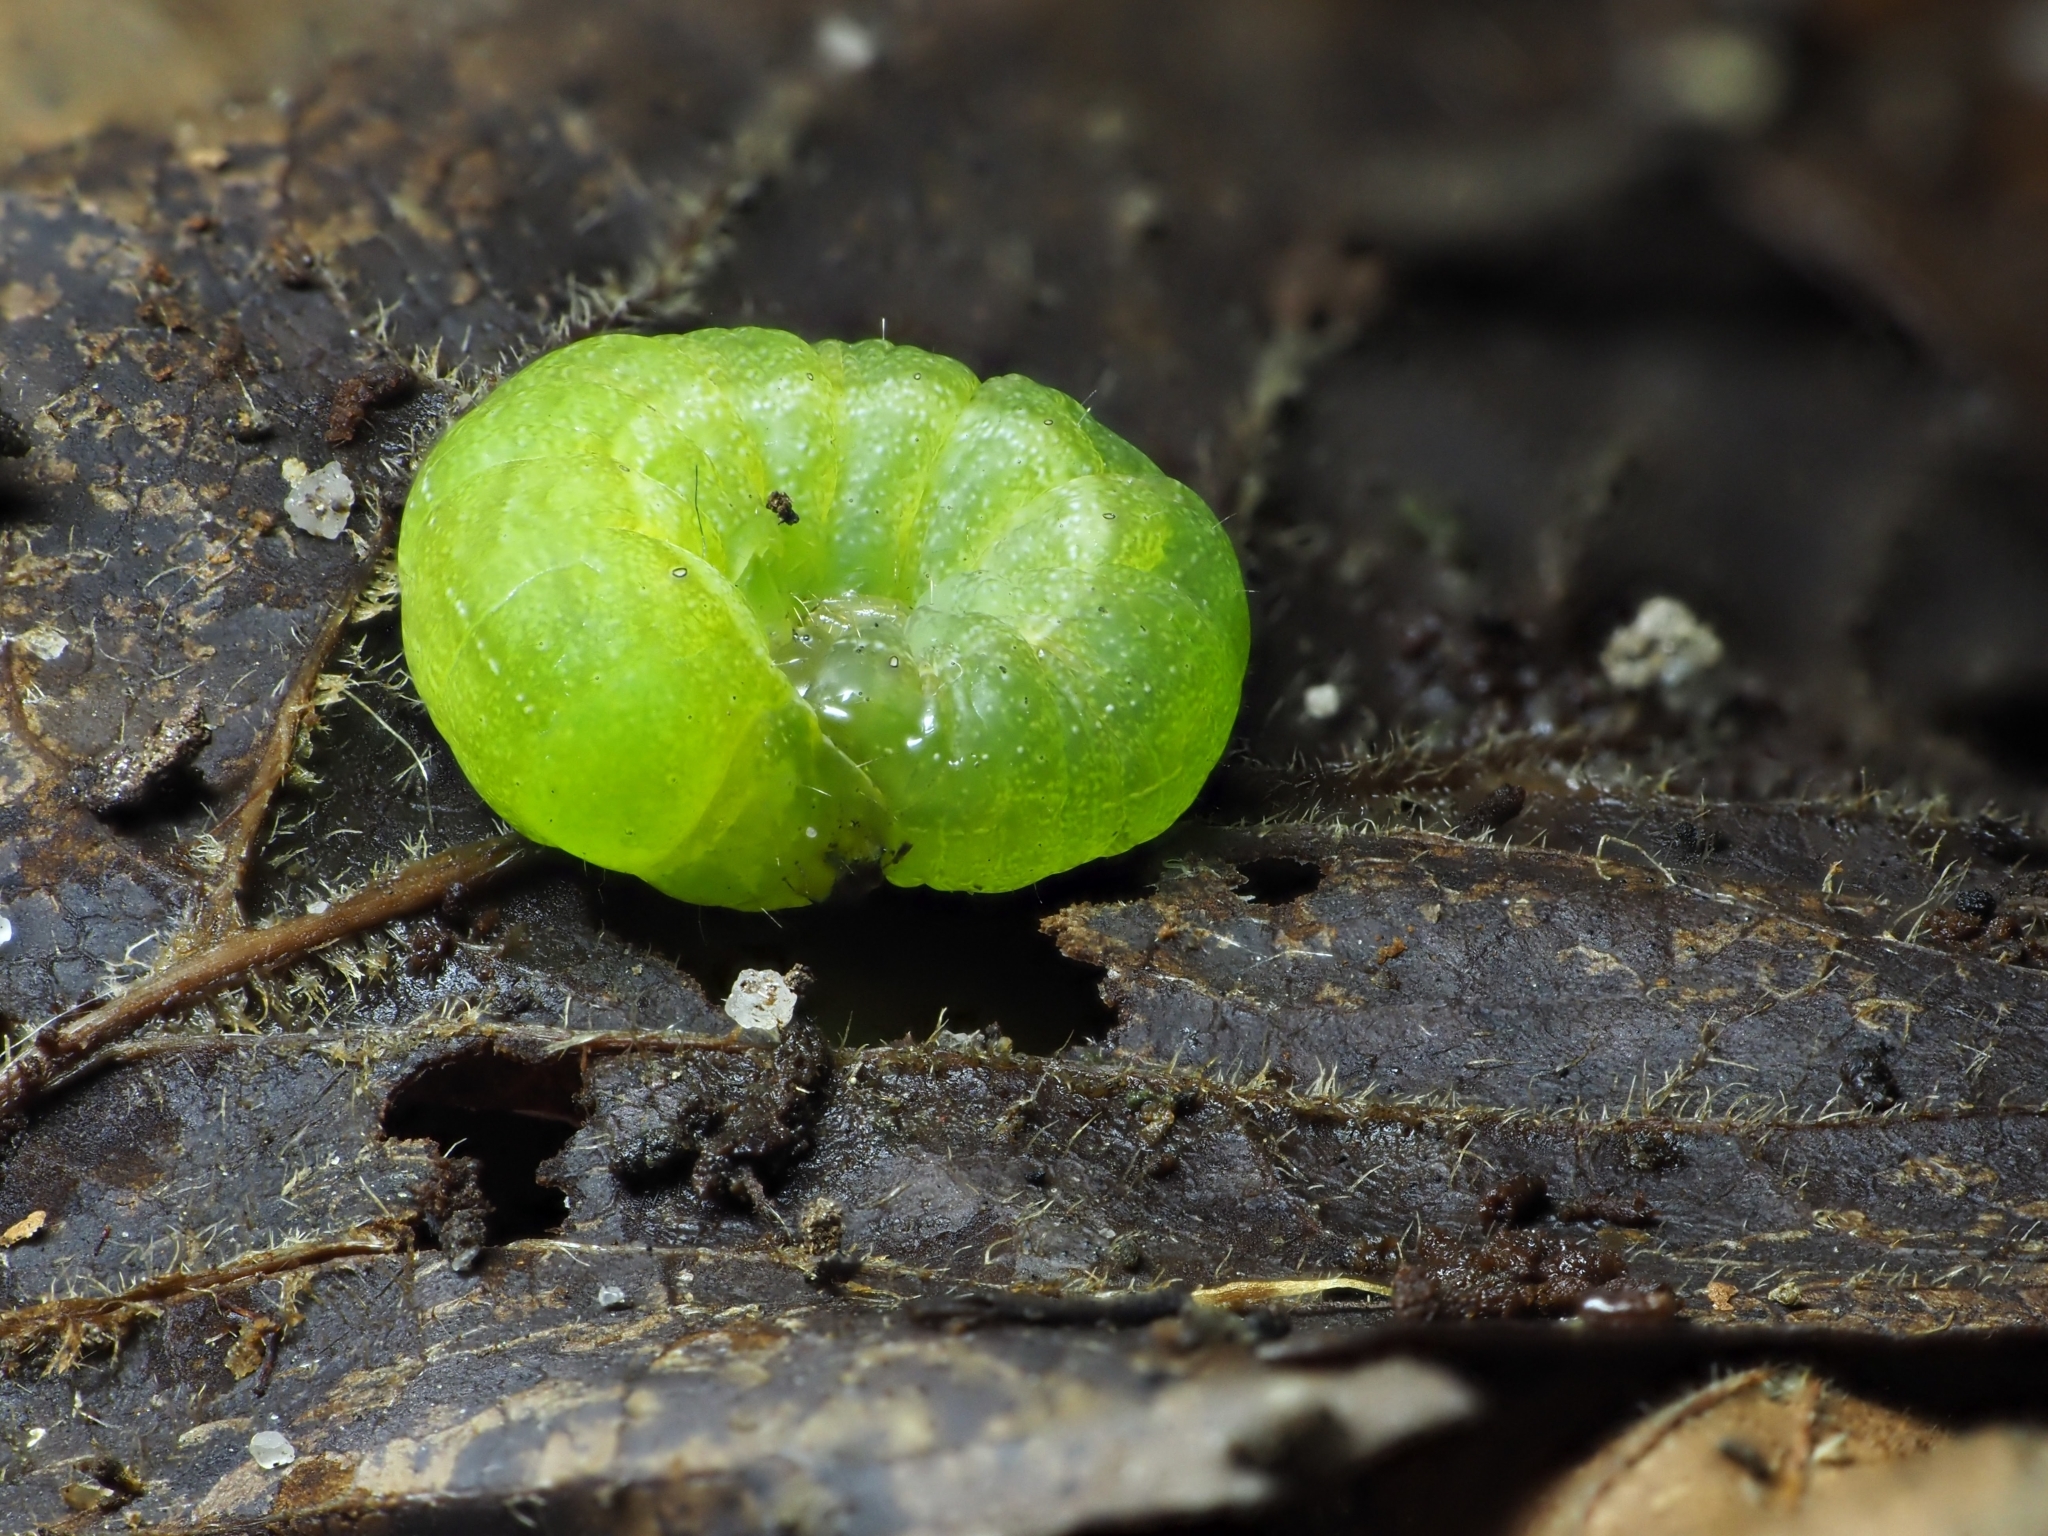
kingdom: Animalia
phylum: Arthropoda
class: Insecta
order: Lepidoptera
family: Noctuidae
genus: Phlogophora
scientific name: Phlogophora meticulosa
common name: Angle shades
